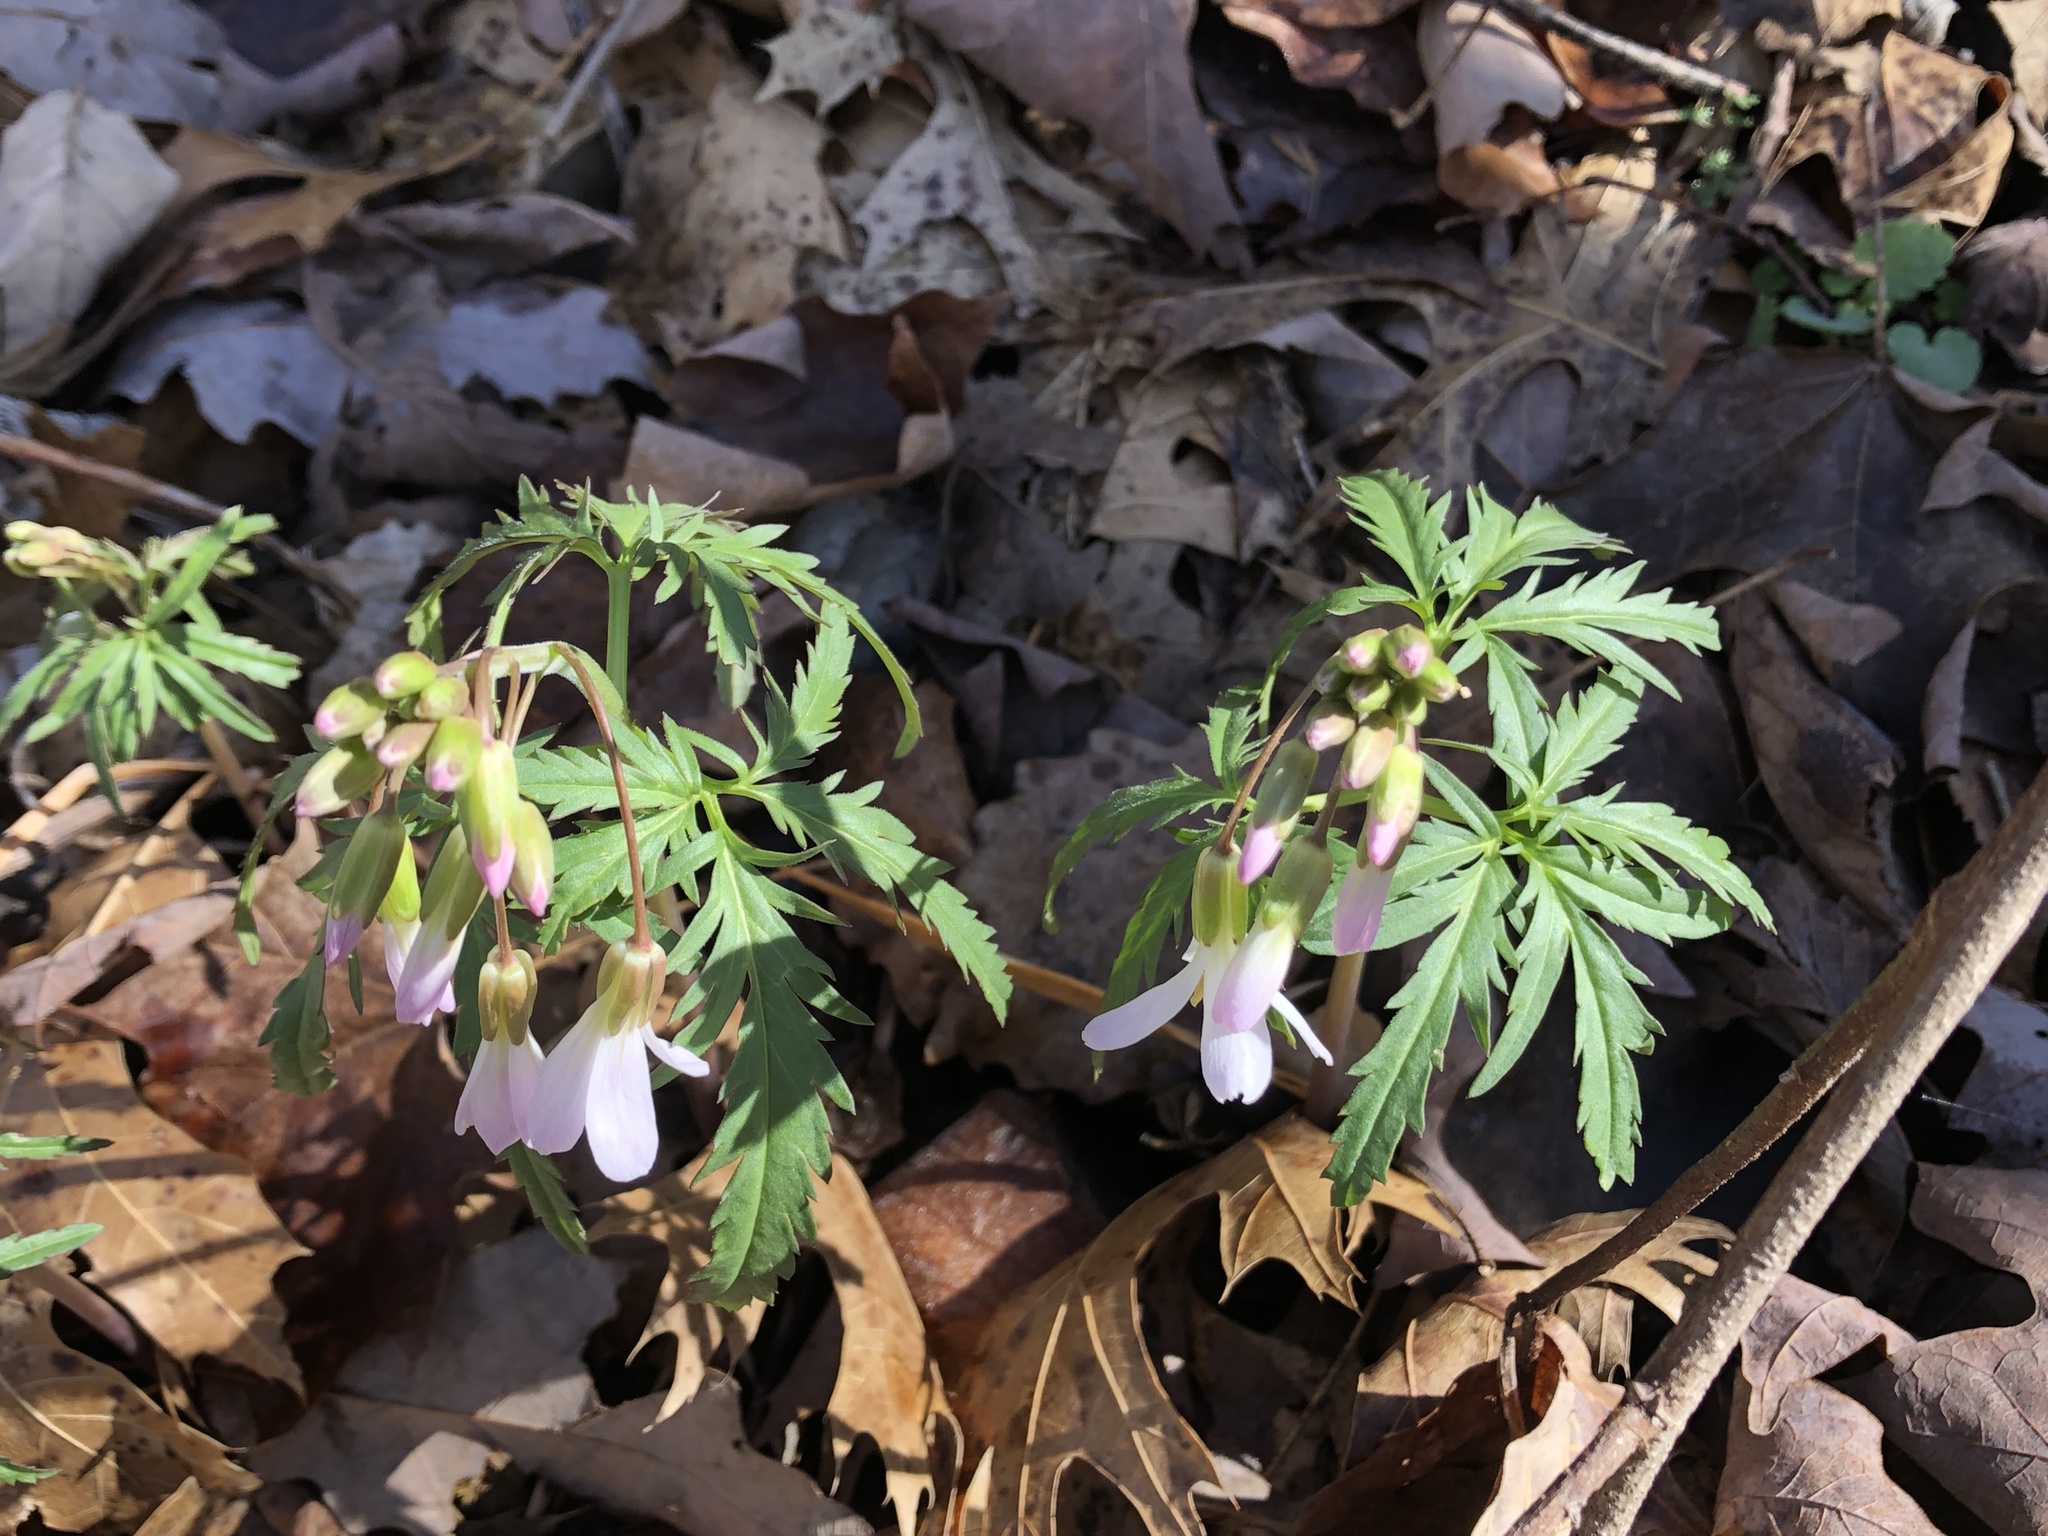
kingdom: Plantae
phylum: Tracheophyta
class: Magnoliopsida
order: Brassicales
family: Brassicaceae
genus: Cardamine
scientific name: Cardamine concatenata
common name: Cut-leaf toothcup
